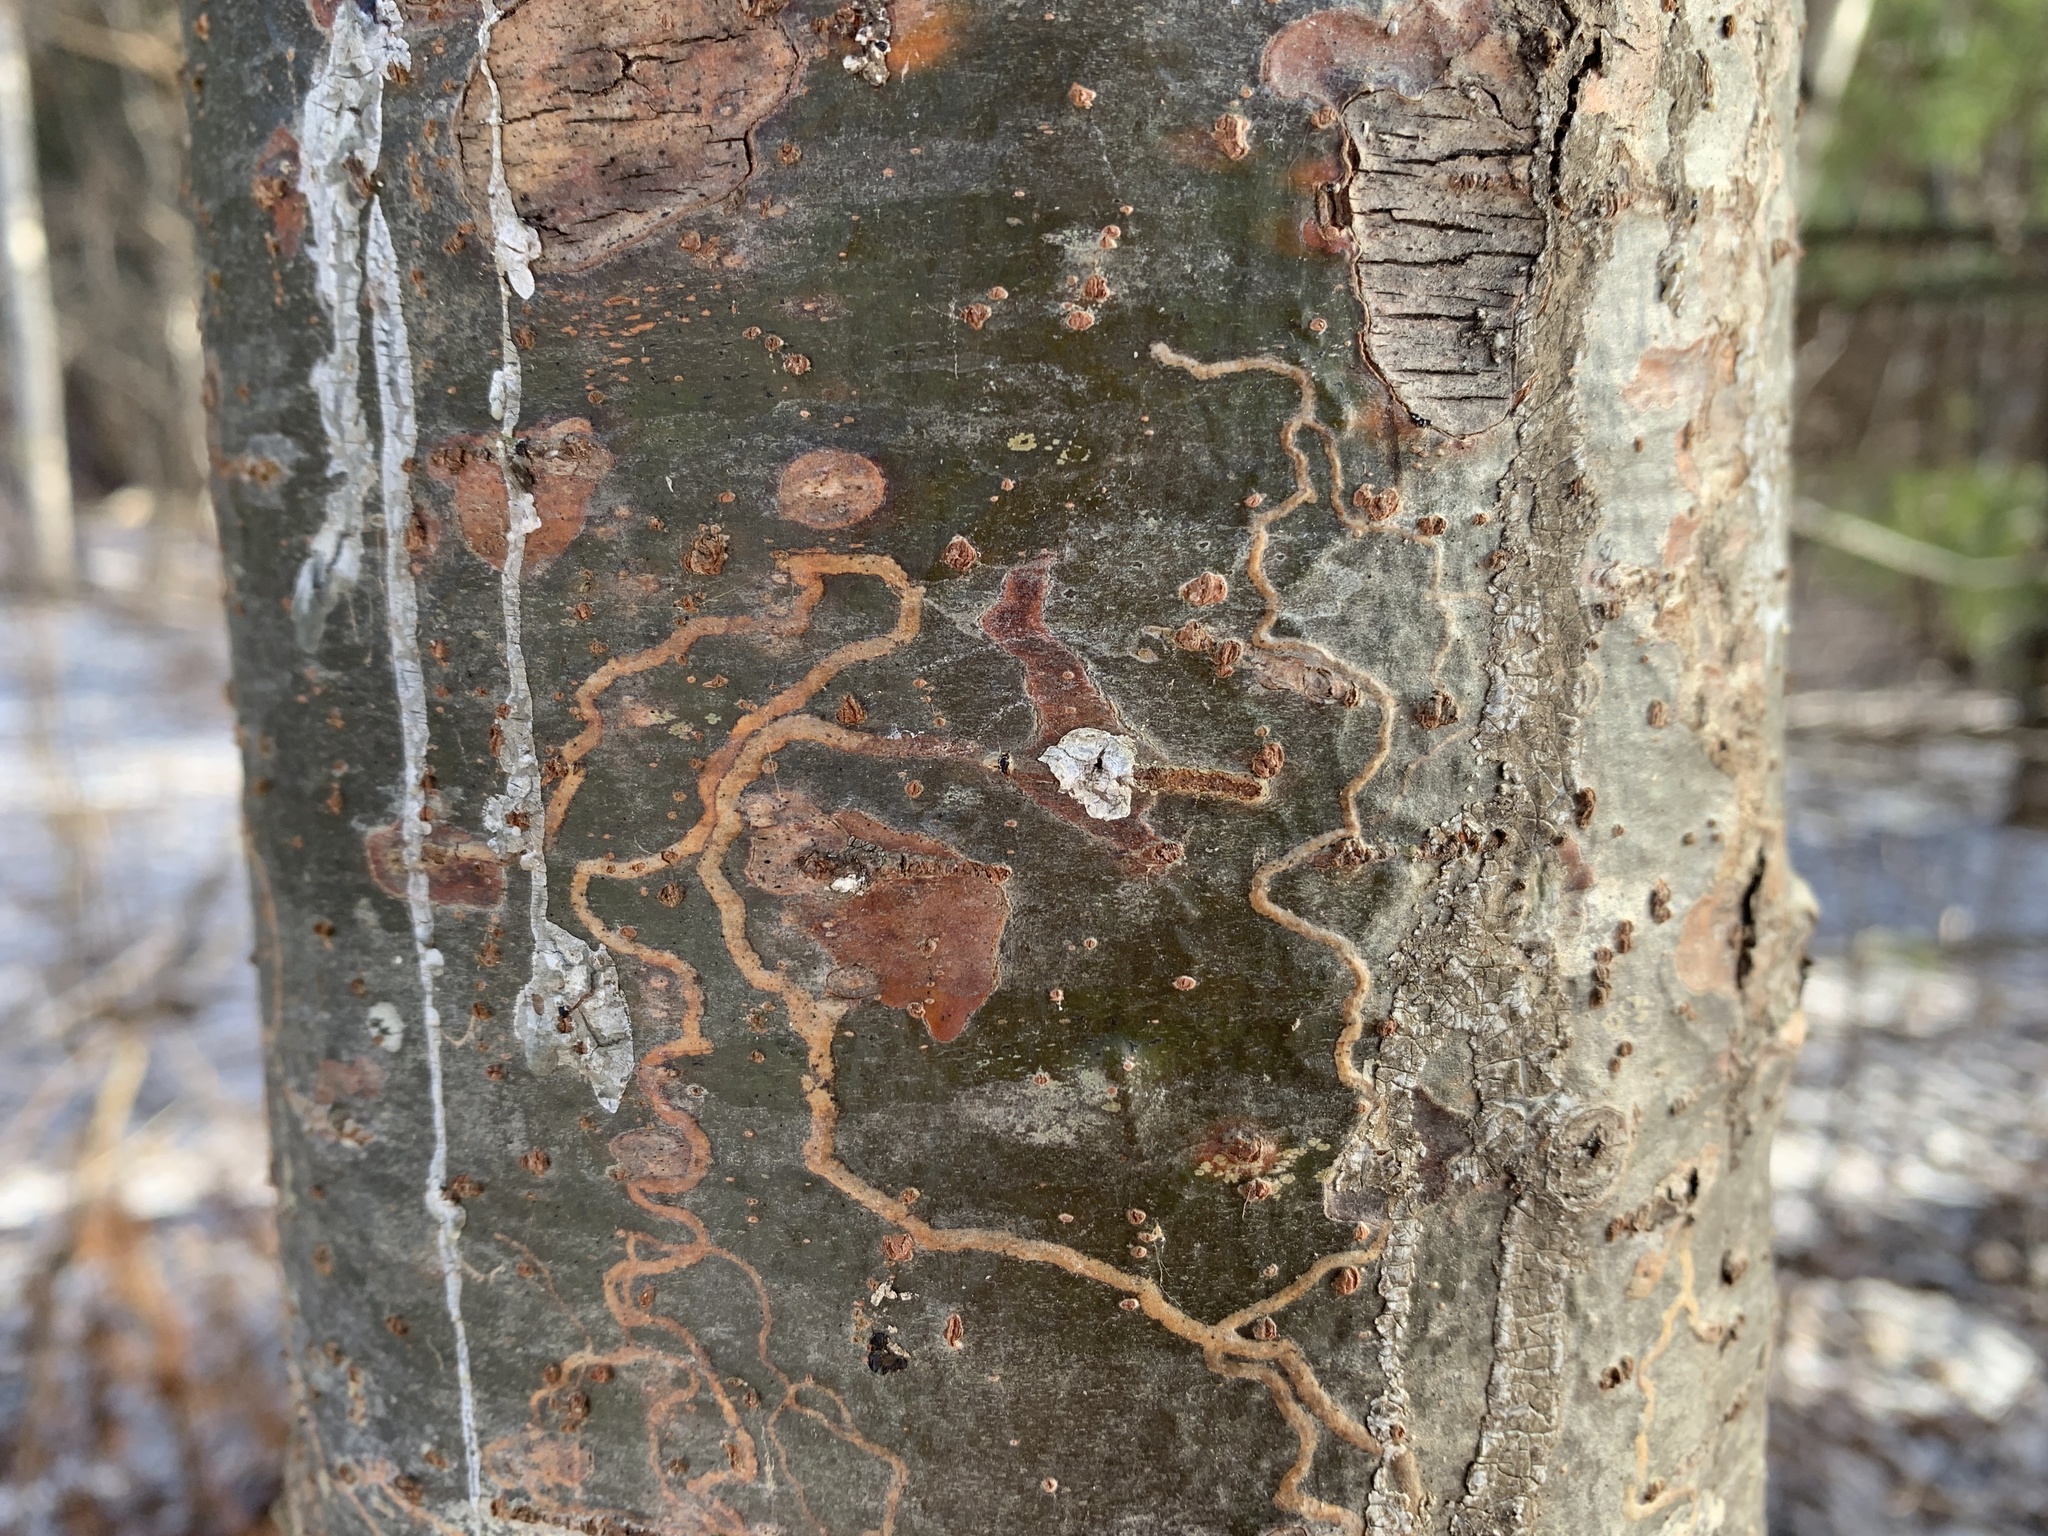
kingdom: Animalia
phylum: Arthropoda
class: Insecta
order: Lepidoptera
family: Gracillariidae
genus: Marmara
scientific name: Marmara fasciella
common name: White pine barkminer moth
